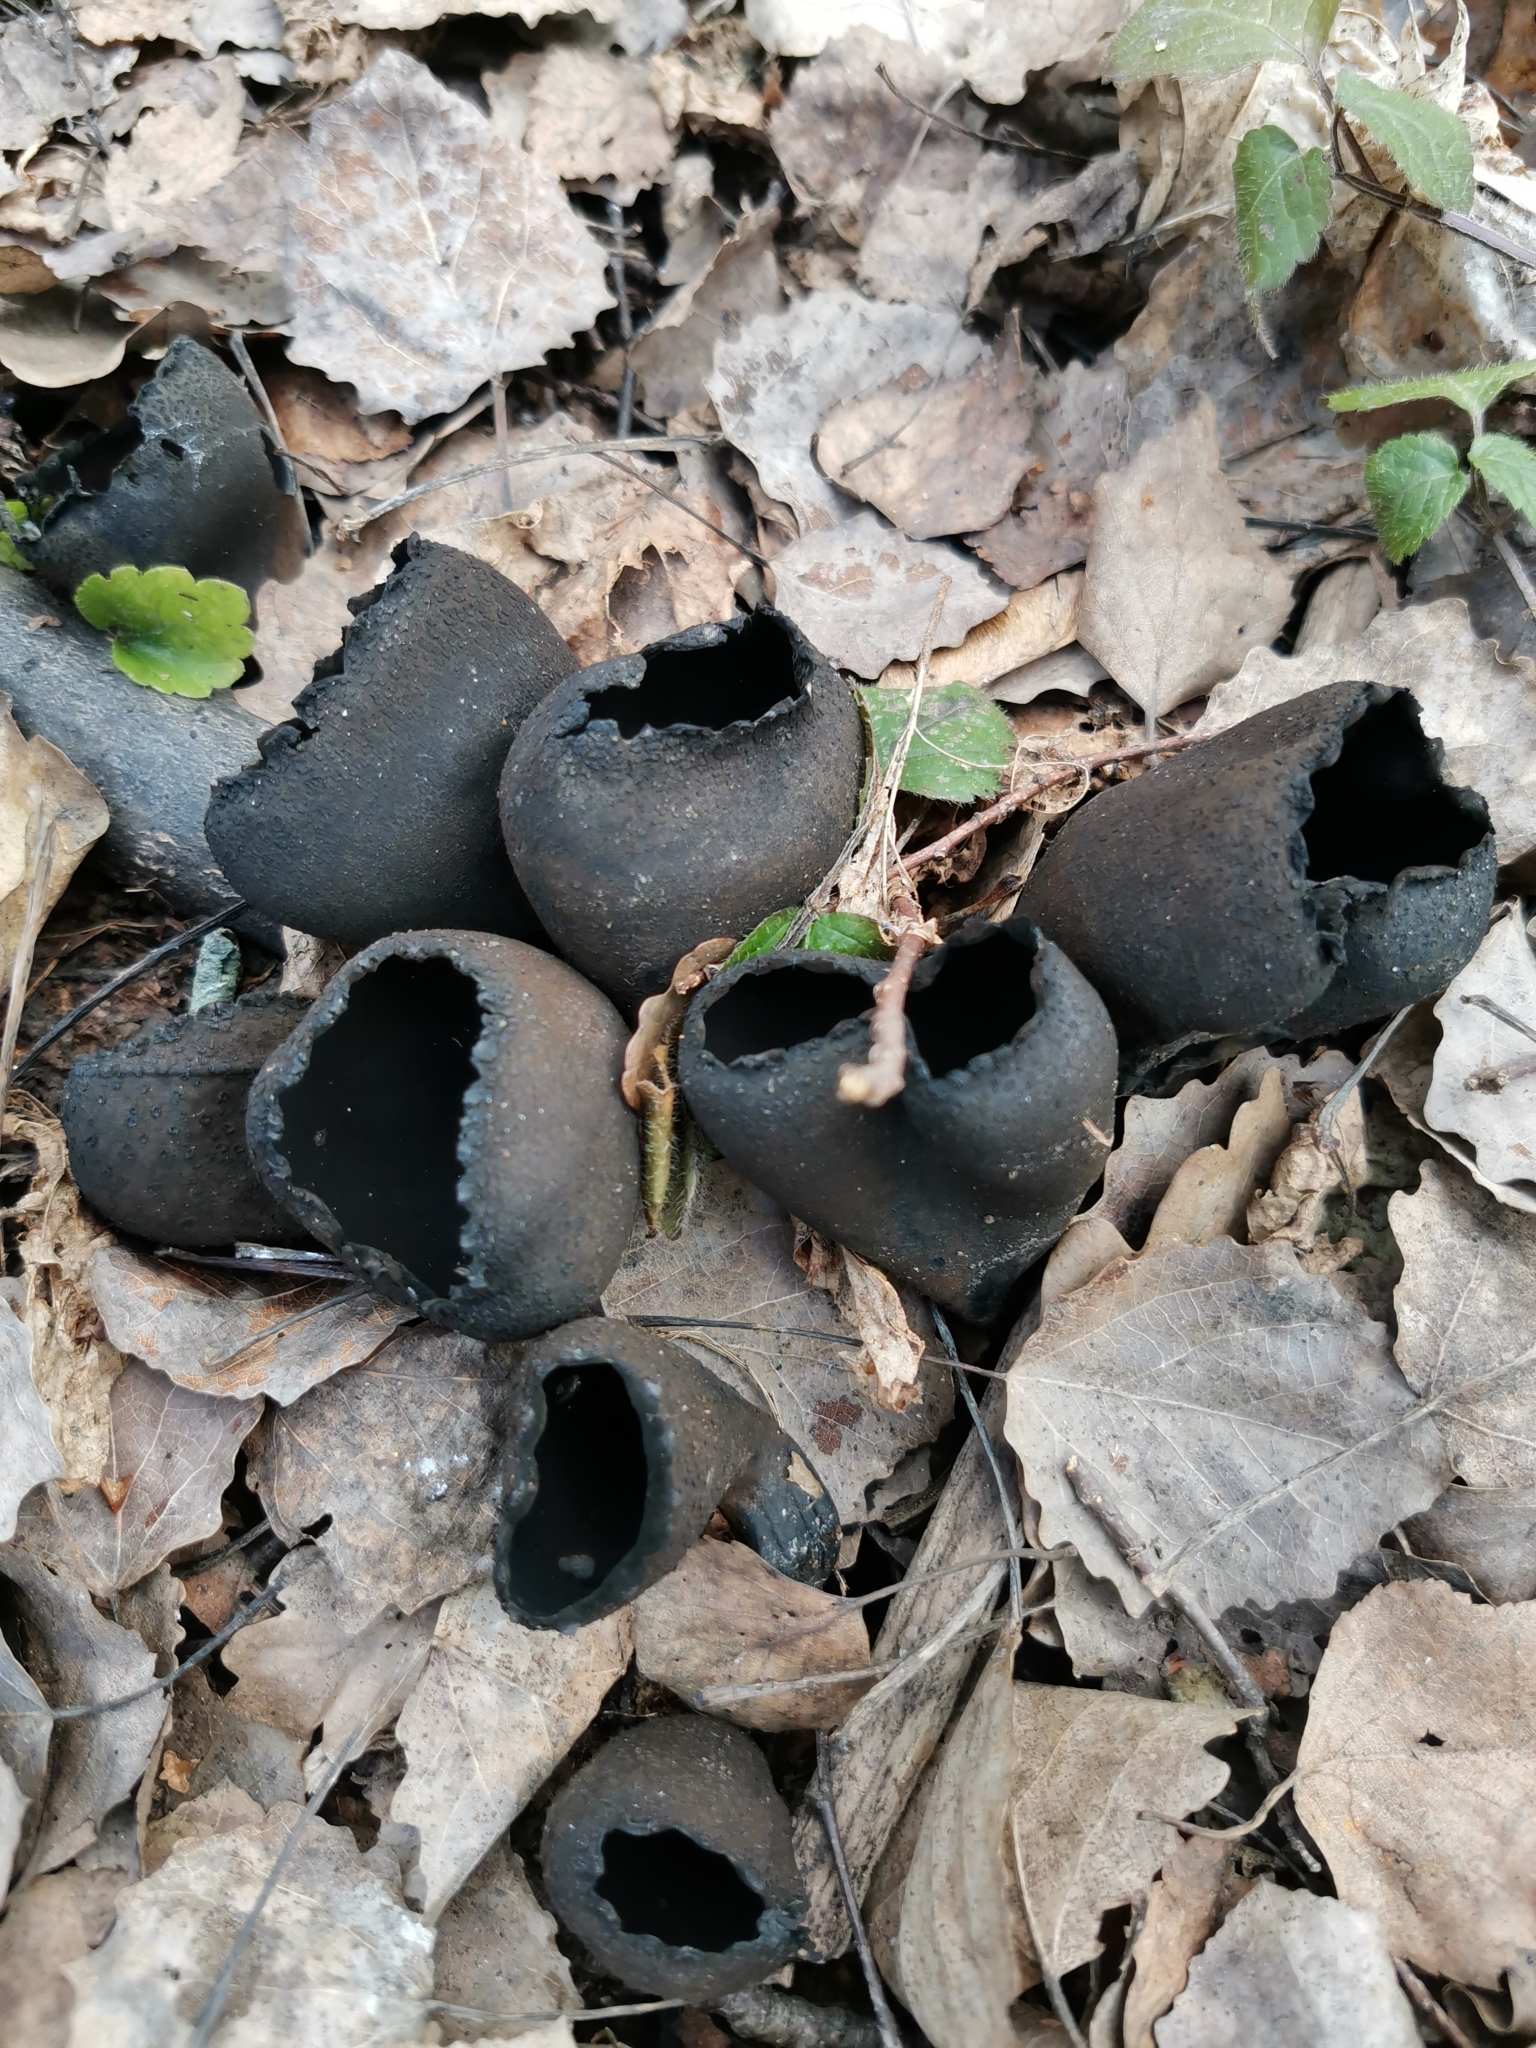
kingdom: Fungi
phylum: Ascomycota
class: Pezizomycetes
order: Pezizales
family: Sarcosomataceae
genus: Urnula
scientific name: Urnula craterium
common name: Devil's urn
